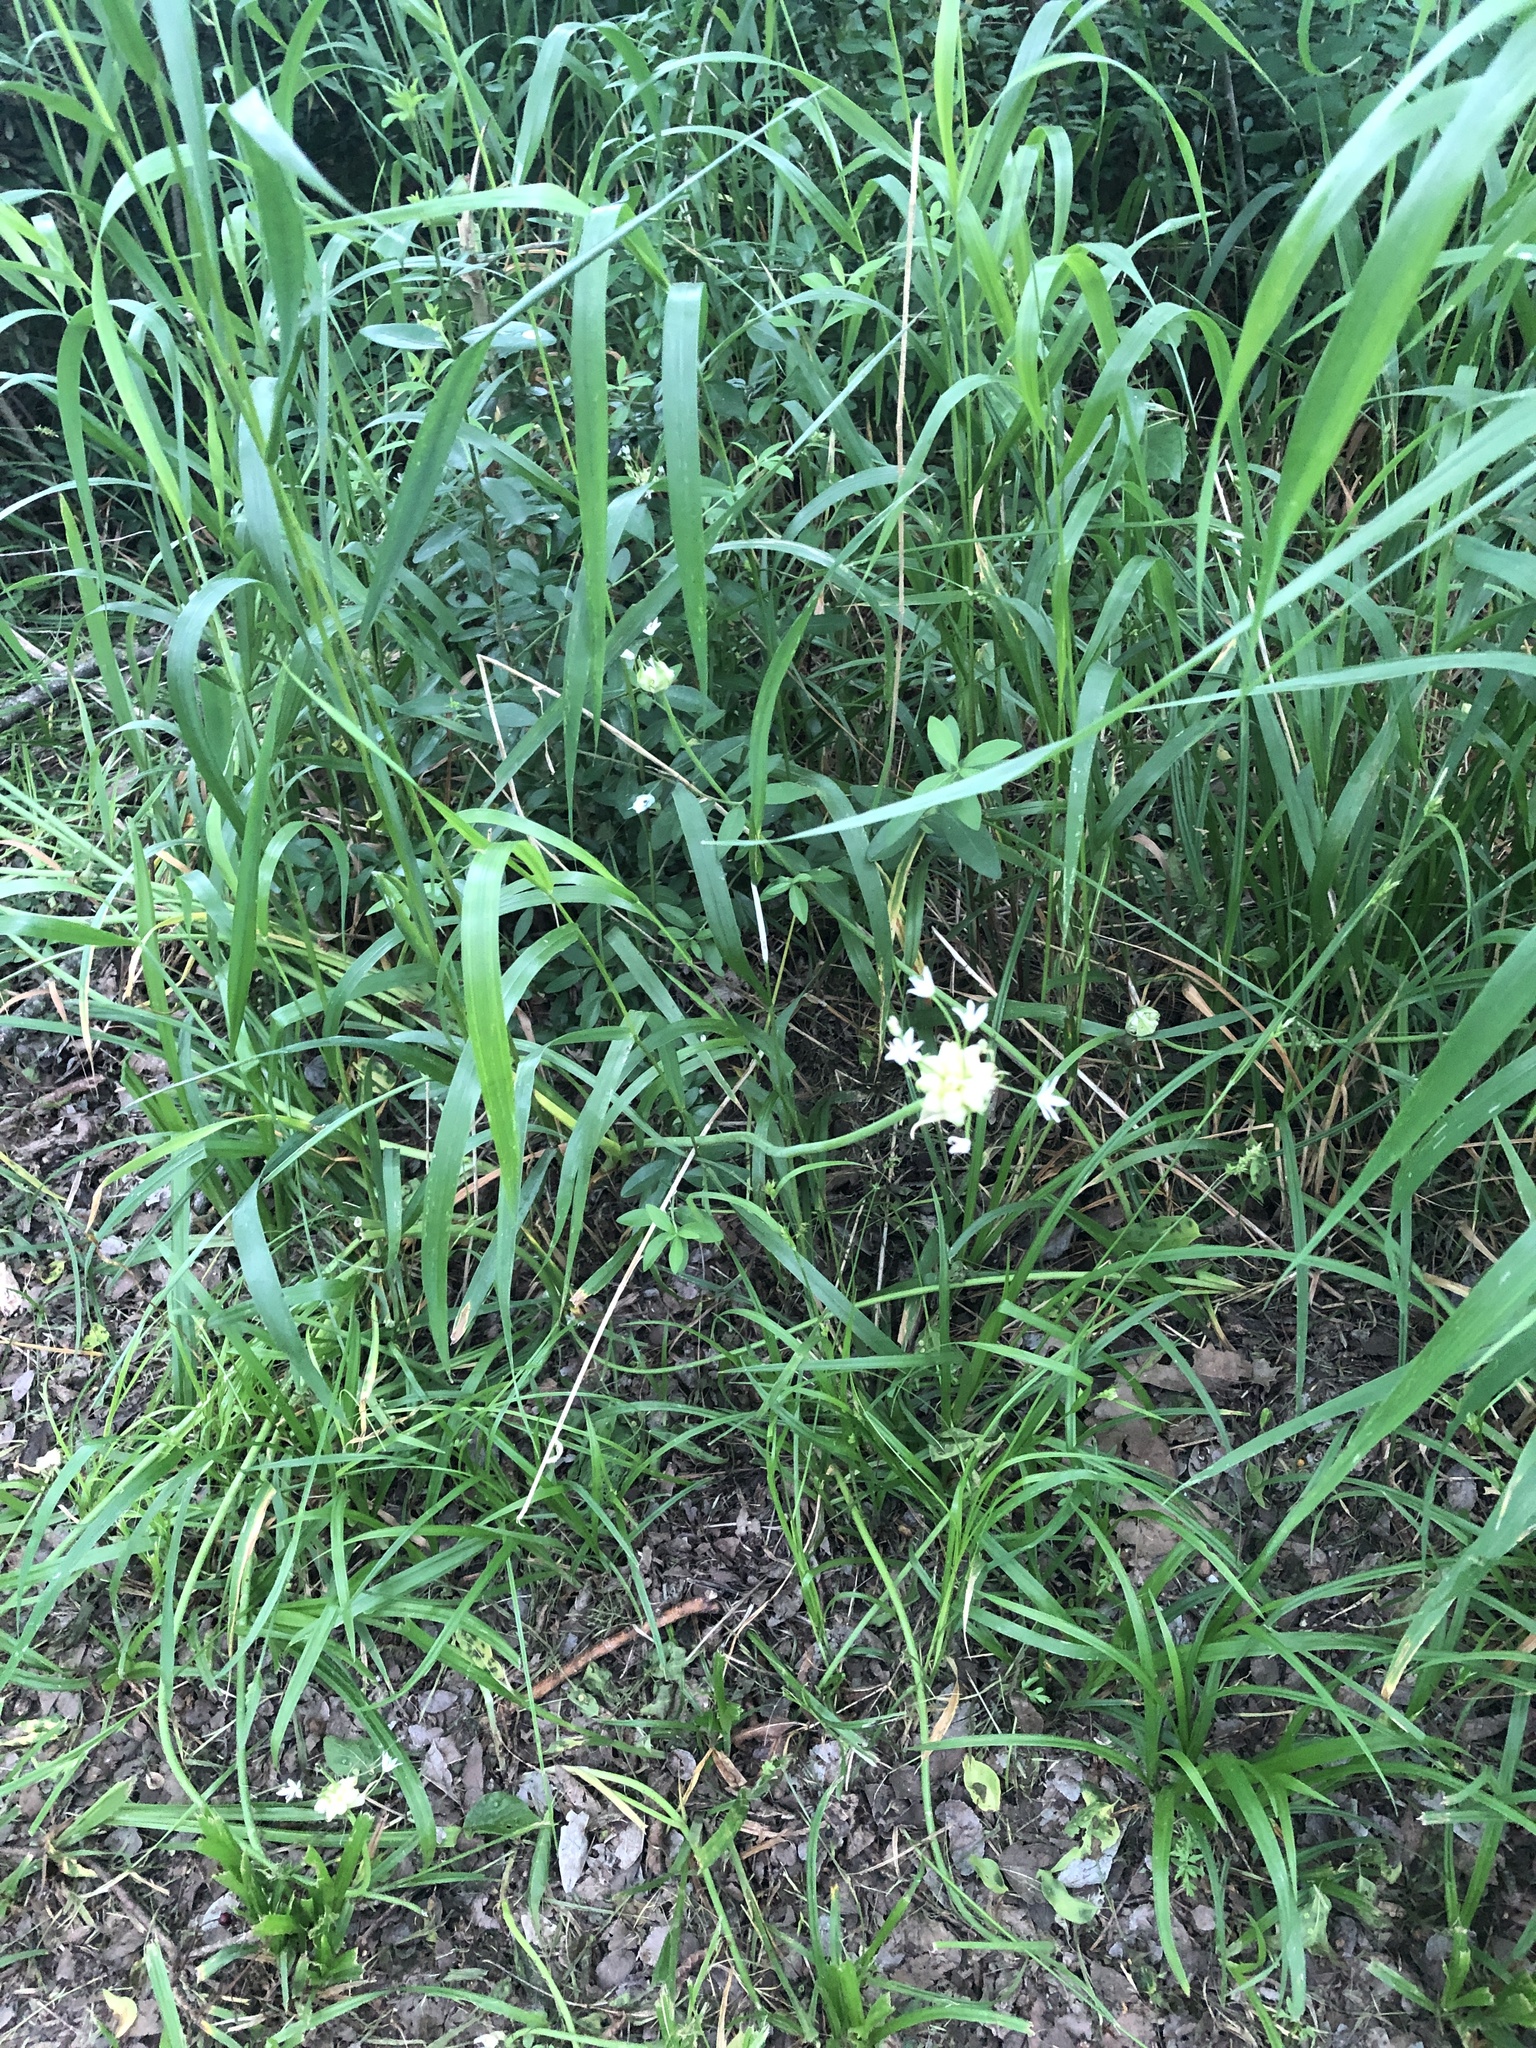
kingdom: Plantae
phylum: Tracheophyta
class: Liliopsida
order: Asparagales
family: Amaryllidaceae
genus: Allium
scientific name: Allium canadense
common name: Meadow garlic
